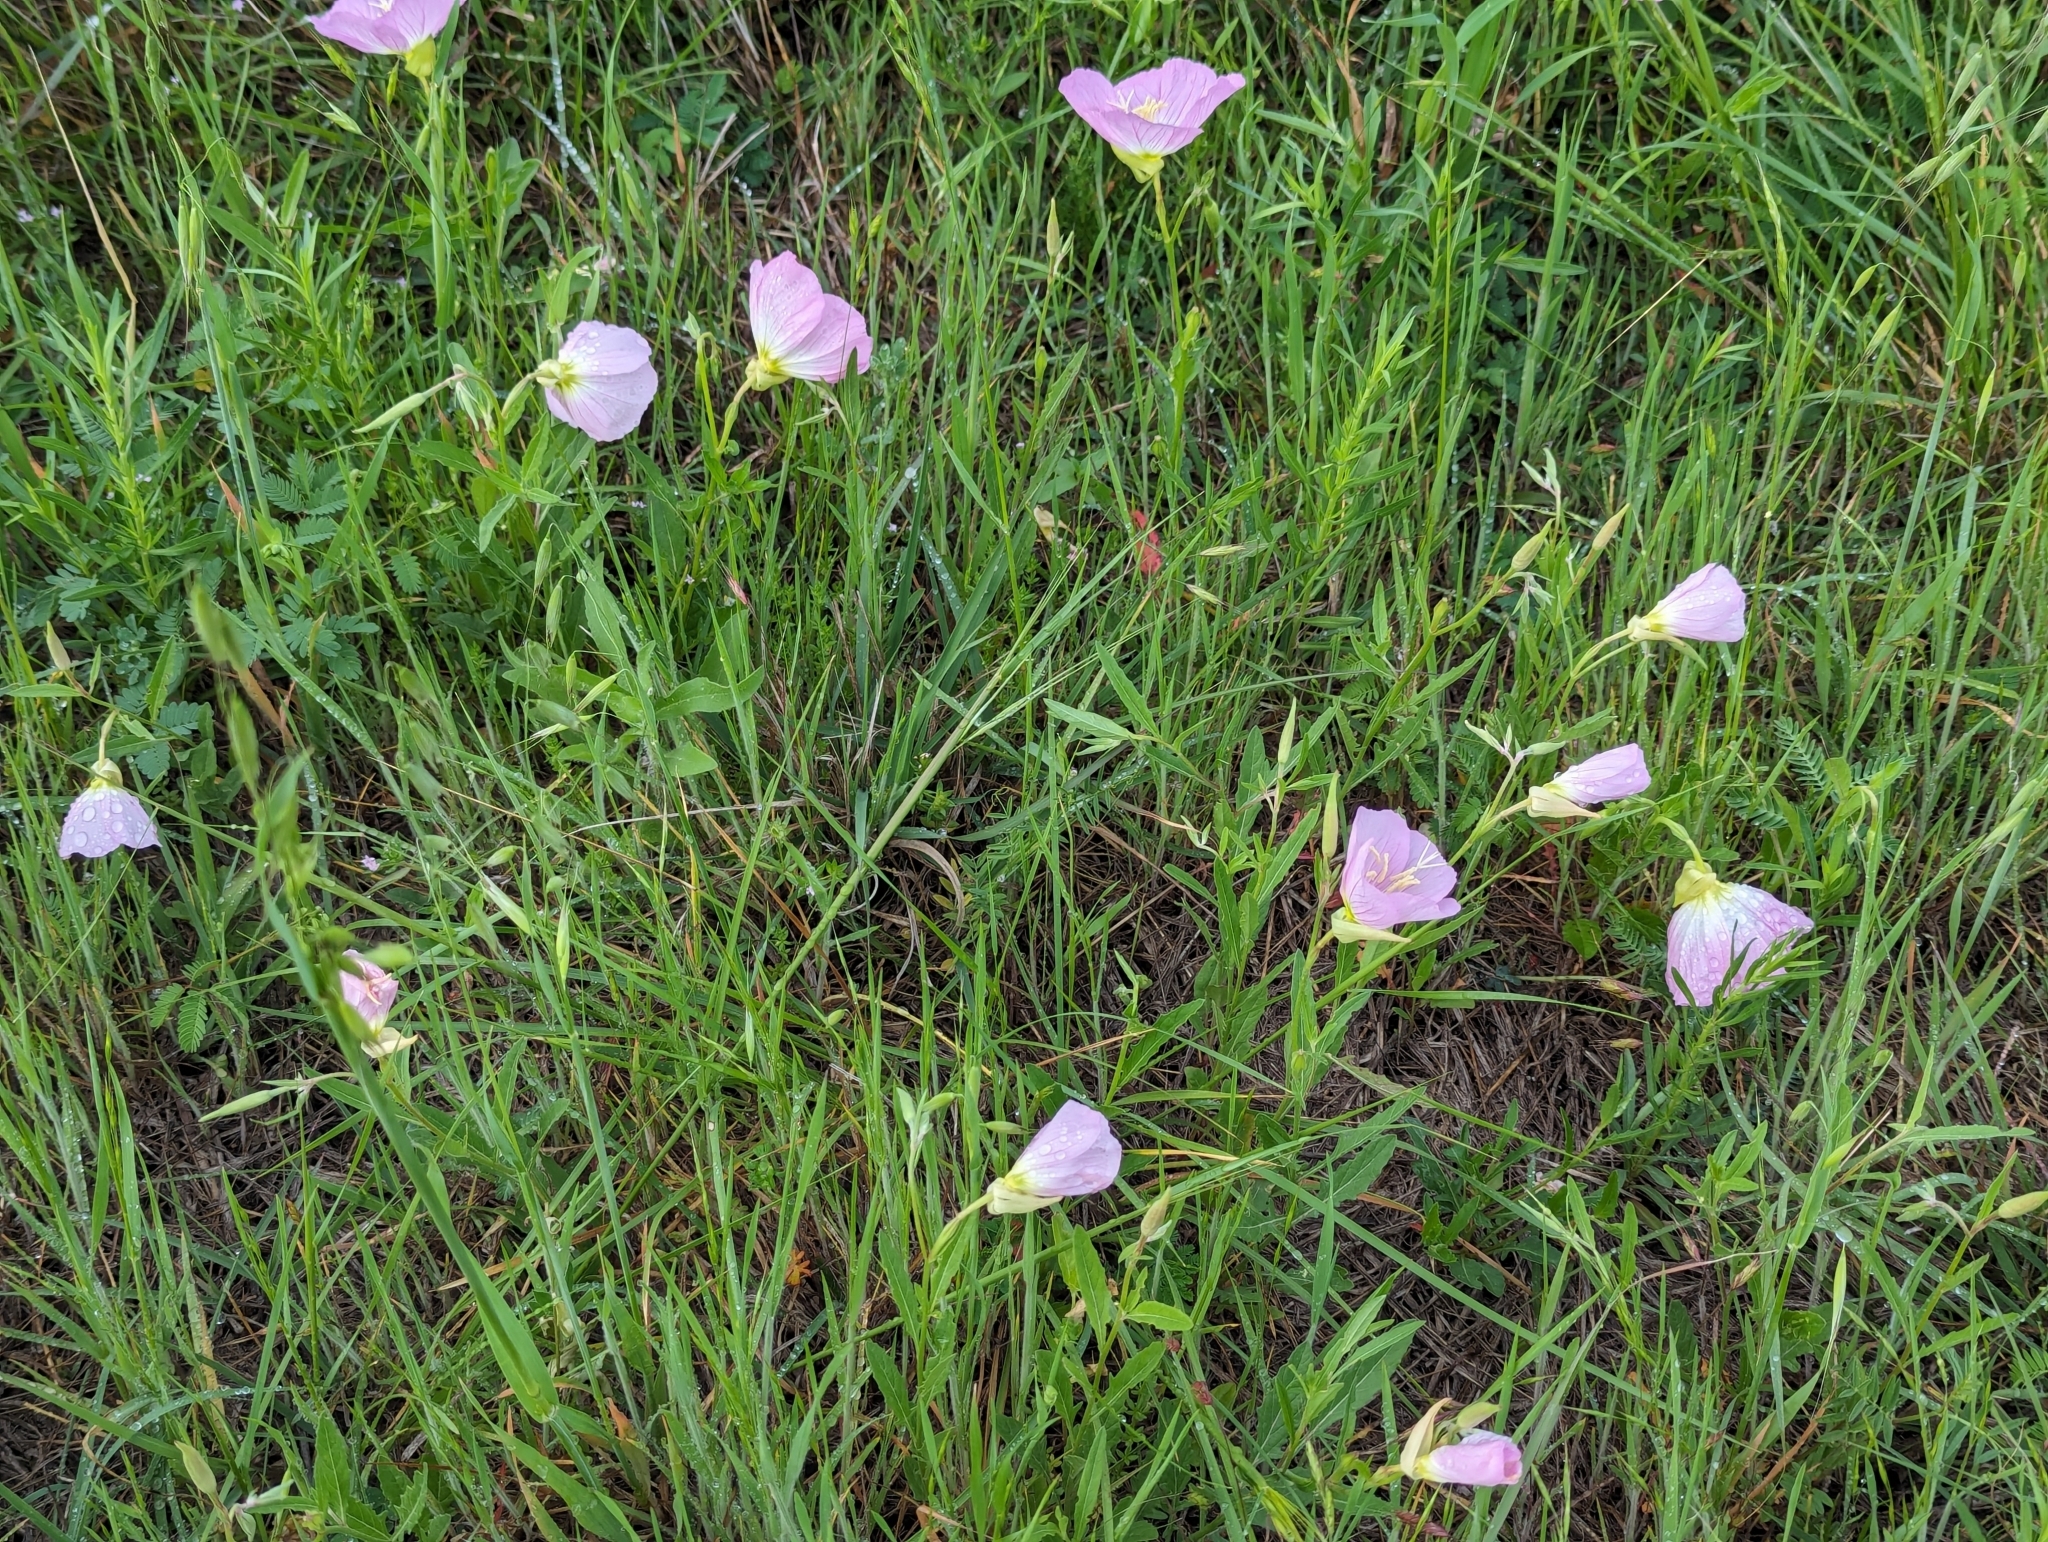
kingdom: Plantae
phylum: Tracheophyta
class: Magnoliopsida
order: Myrtales
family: Onagraceae
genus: Oenothera
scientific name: Oenothera speciosa
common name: White evening-primrose
